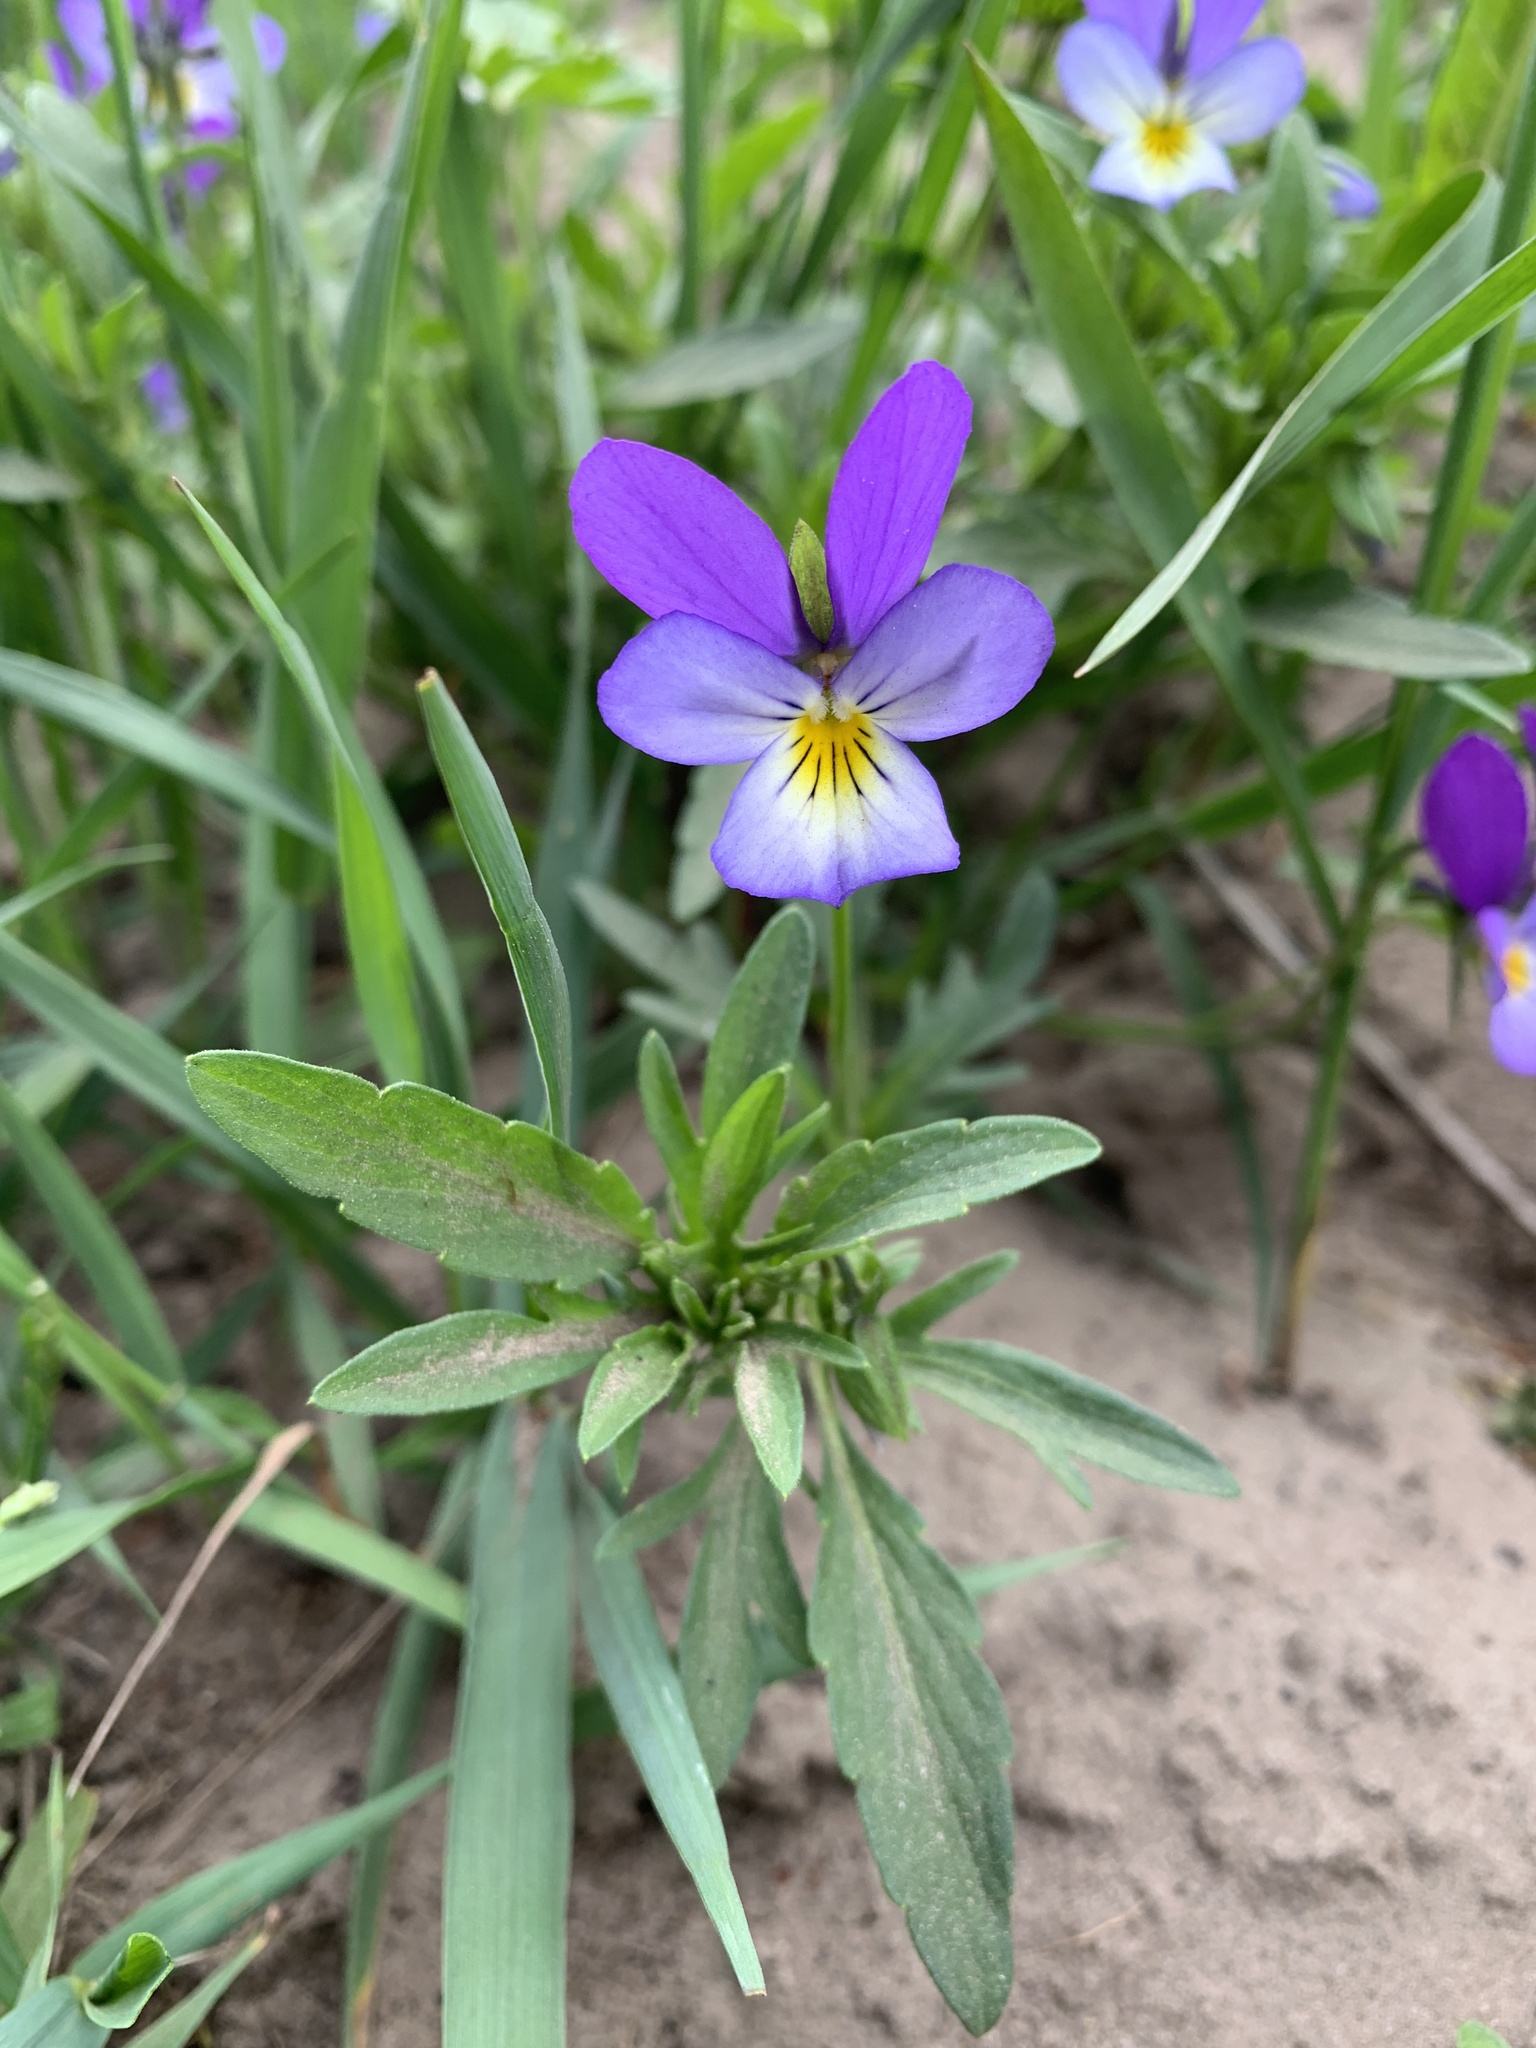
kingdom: Plantae
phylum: Tracheophyta
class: Magnoliopsida
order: Malpighiales
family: Violaceae
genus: Viola
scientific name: Viola tricolor
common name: Pansy
